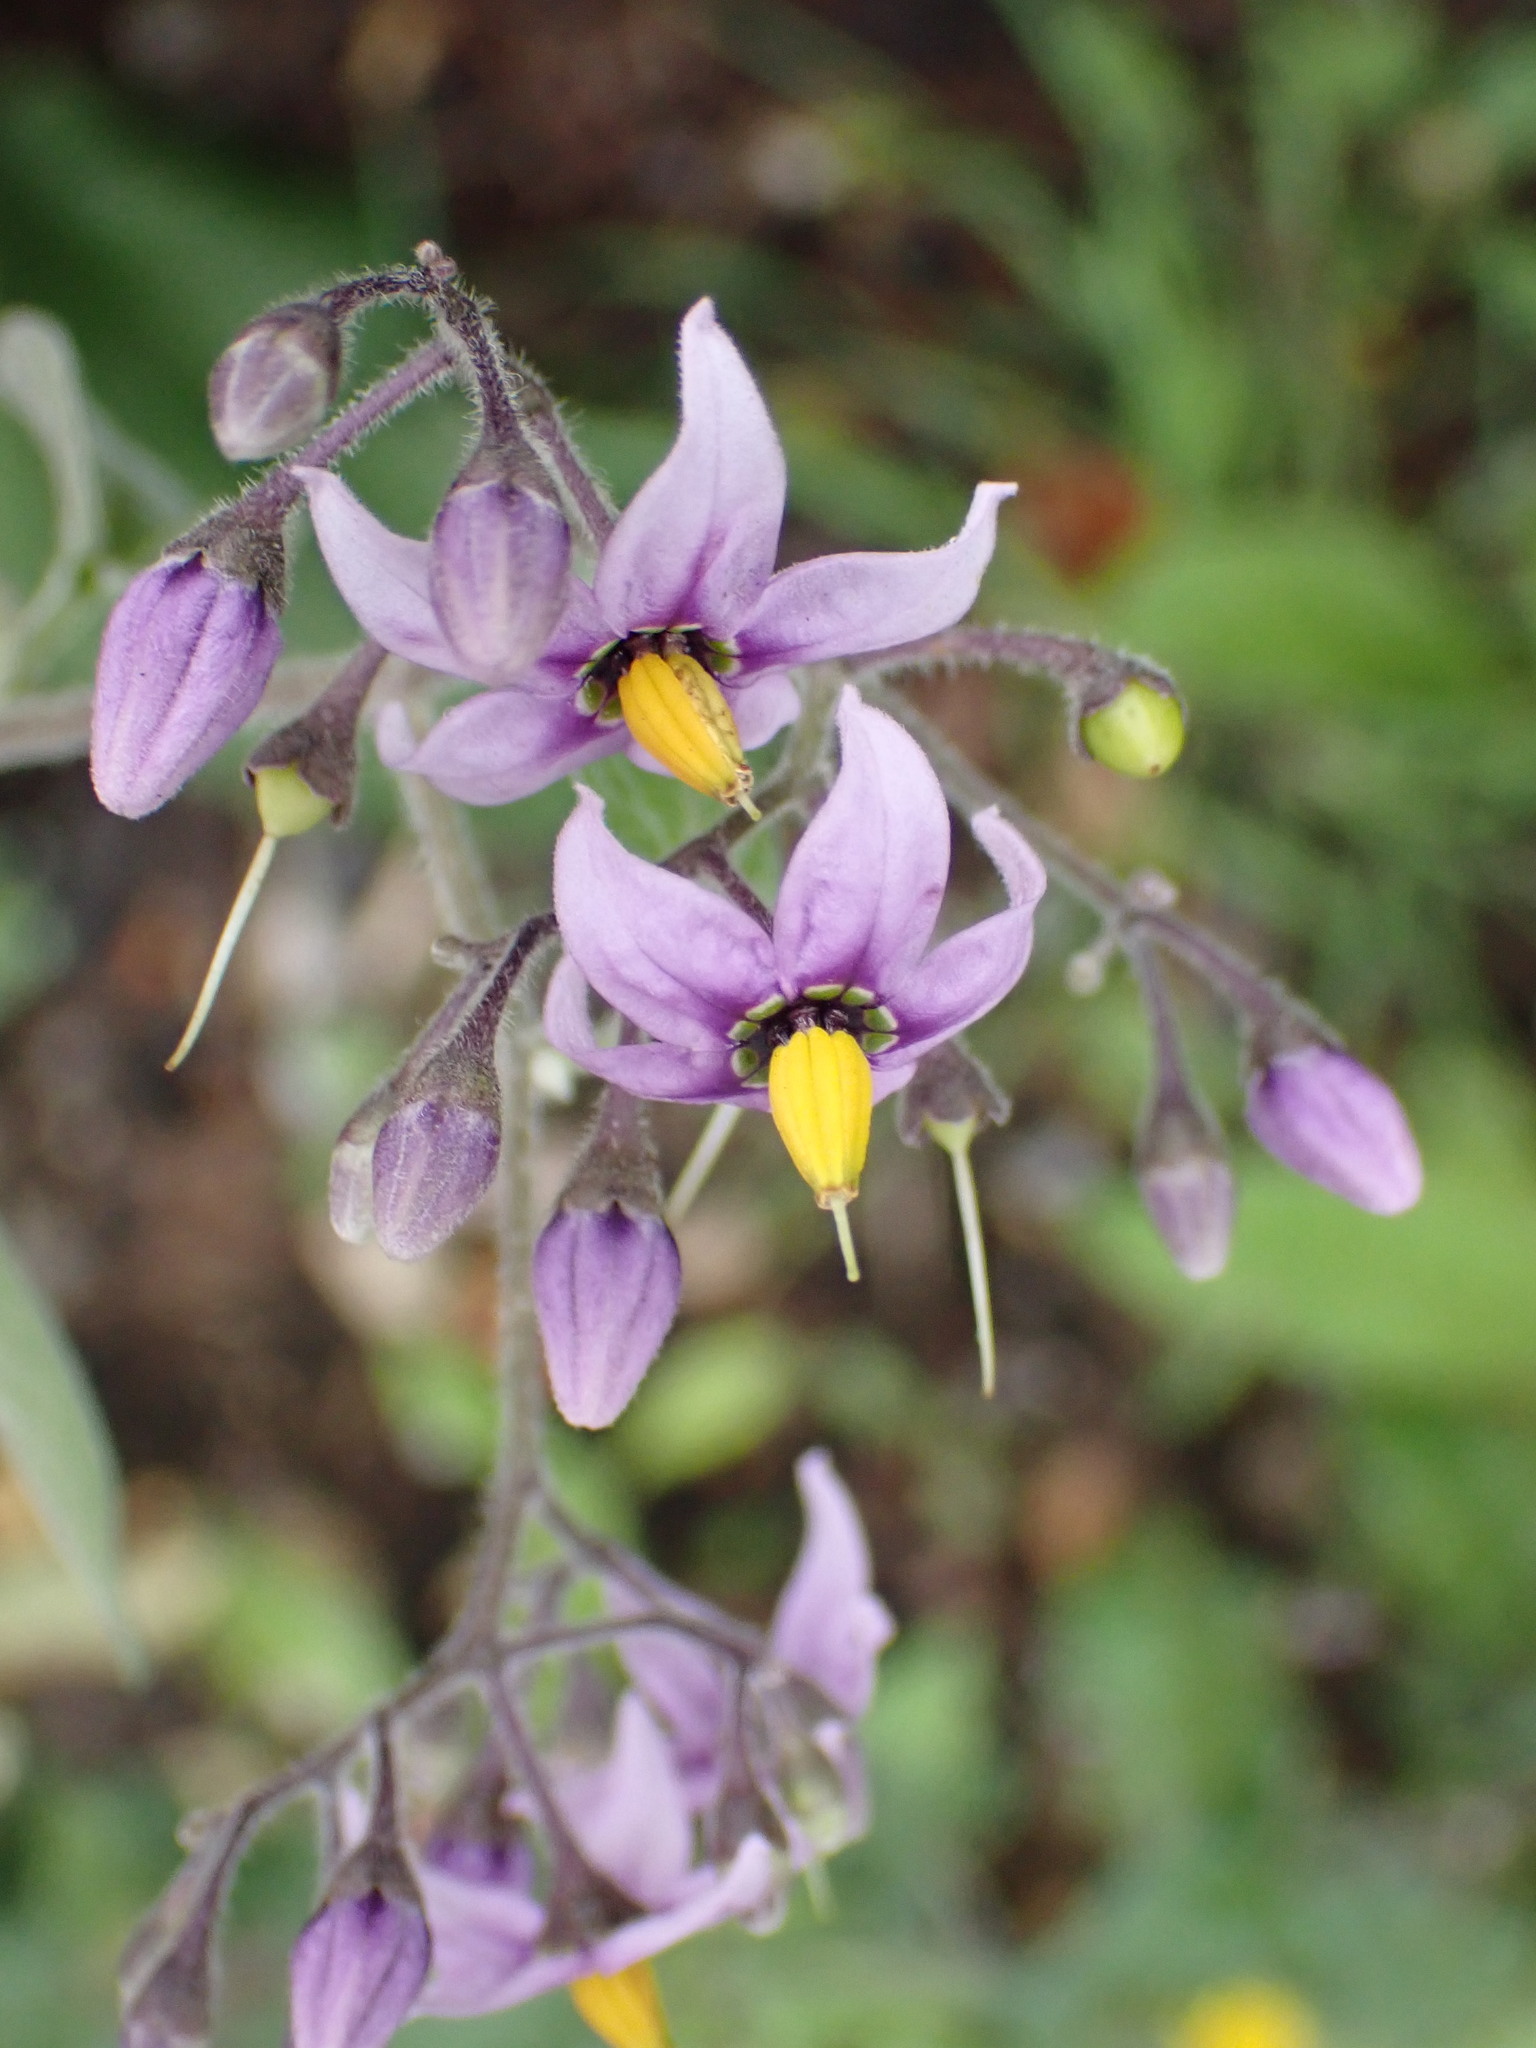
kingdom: Plantae
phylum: Tracheophyta
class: Magnoliopsida
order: Solanales
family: Solanaceae
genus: Solanum
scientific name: Solanum dulcamara
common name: Climbing nightshade
